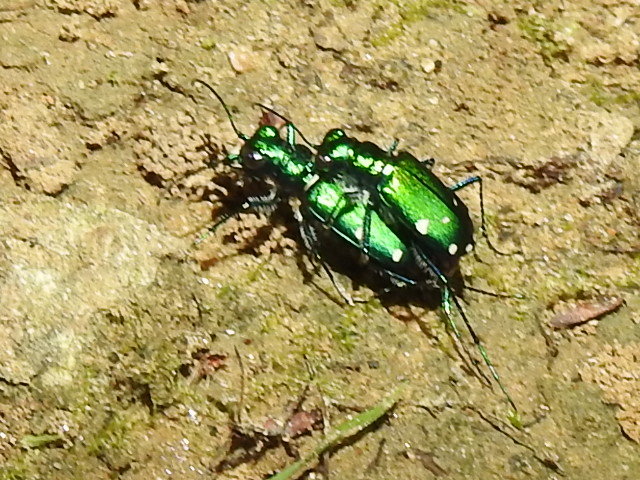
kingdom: Animalia
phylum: Arthropoda
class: Insecta
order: Coleoptera
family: Carabidae
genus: Cicindela
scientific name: Cicindela sexguttata
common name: Six-spotted tiger beetle
